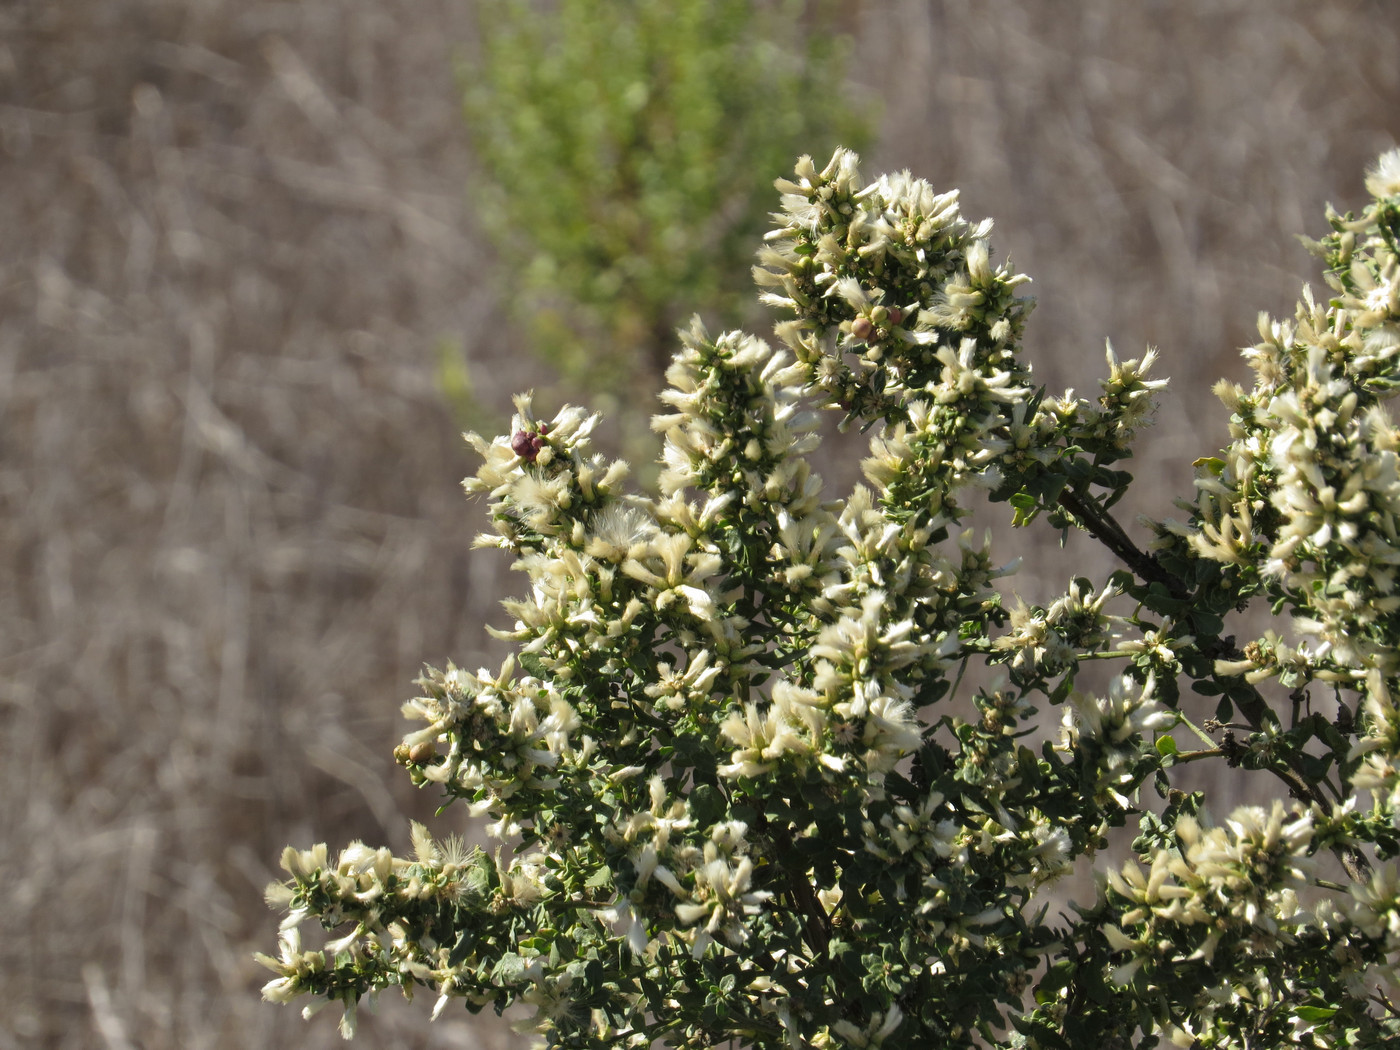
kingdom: Plantae
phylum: Tracheophyta
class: Magnoliopsida
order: Asterales
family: Asteraceae
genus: Baccharis
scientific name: Baccharis pilularis
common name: Coyotebrush
